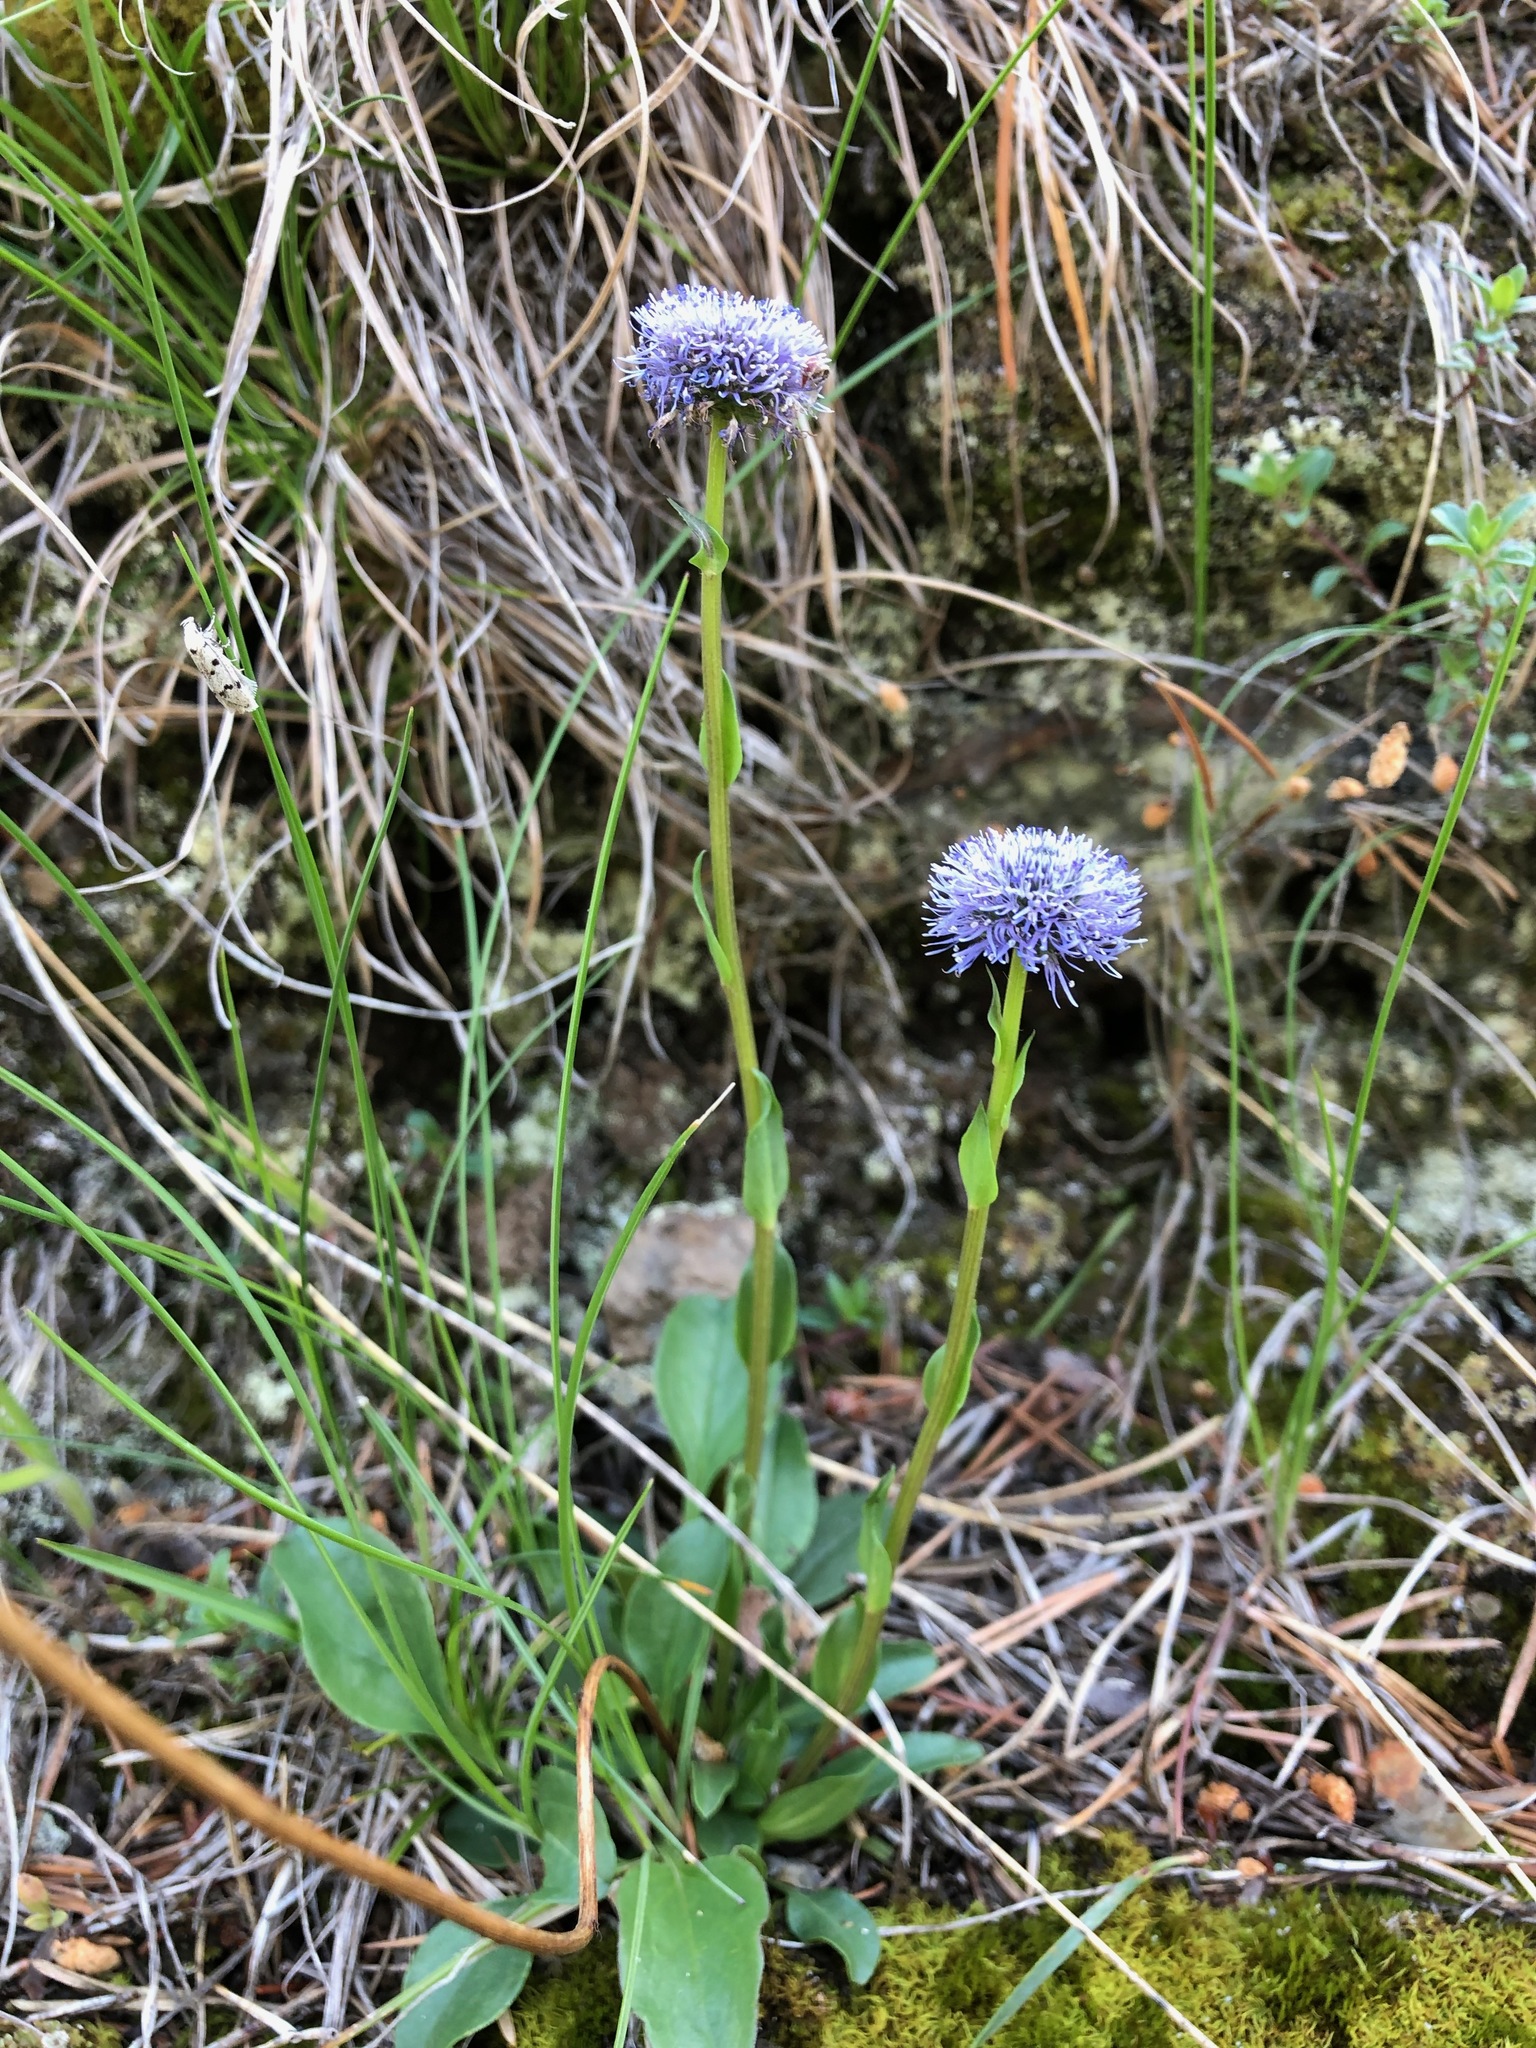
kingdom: Plantae
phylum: Tracheophyta
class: Magnoliopsida
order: Lamiales
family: Plantaginaceae
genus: Globularia
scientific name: Globularia bisnagarica
